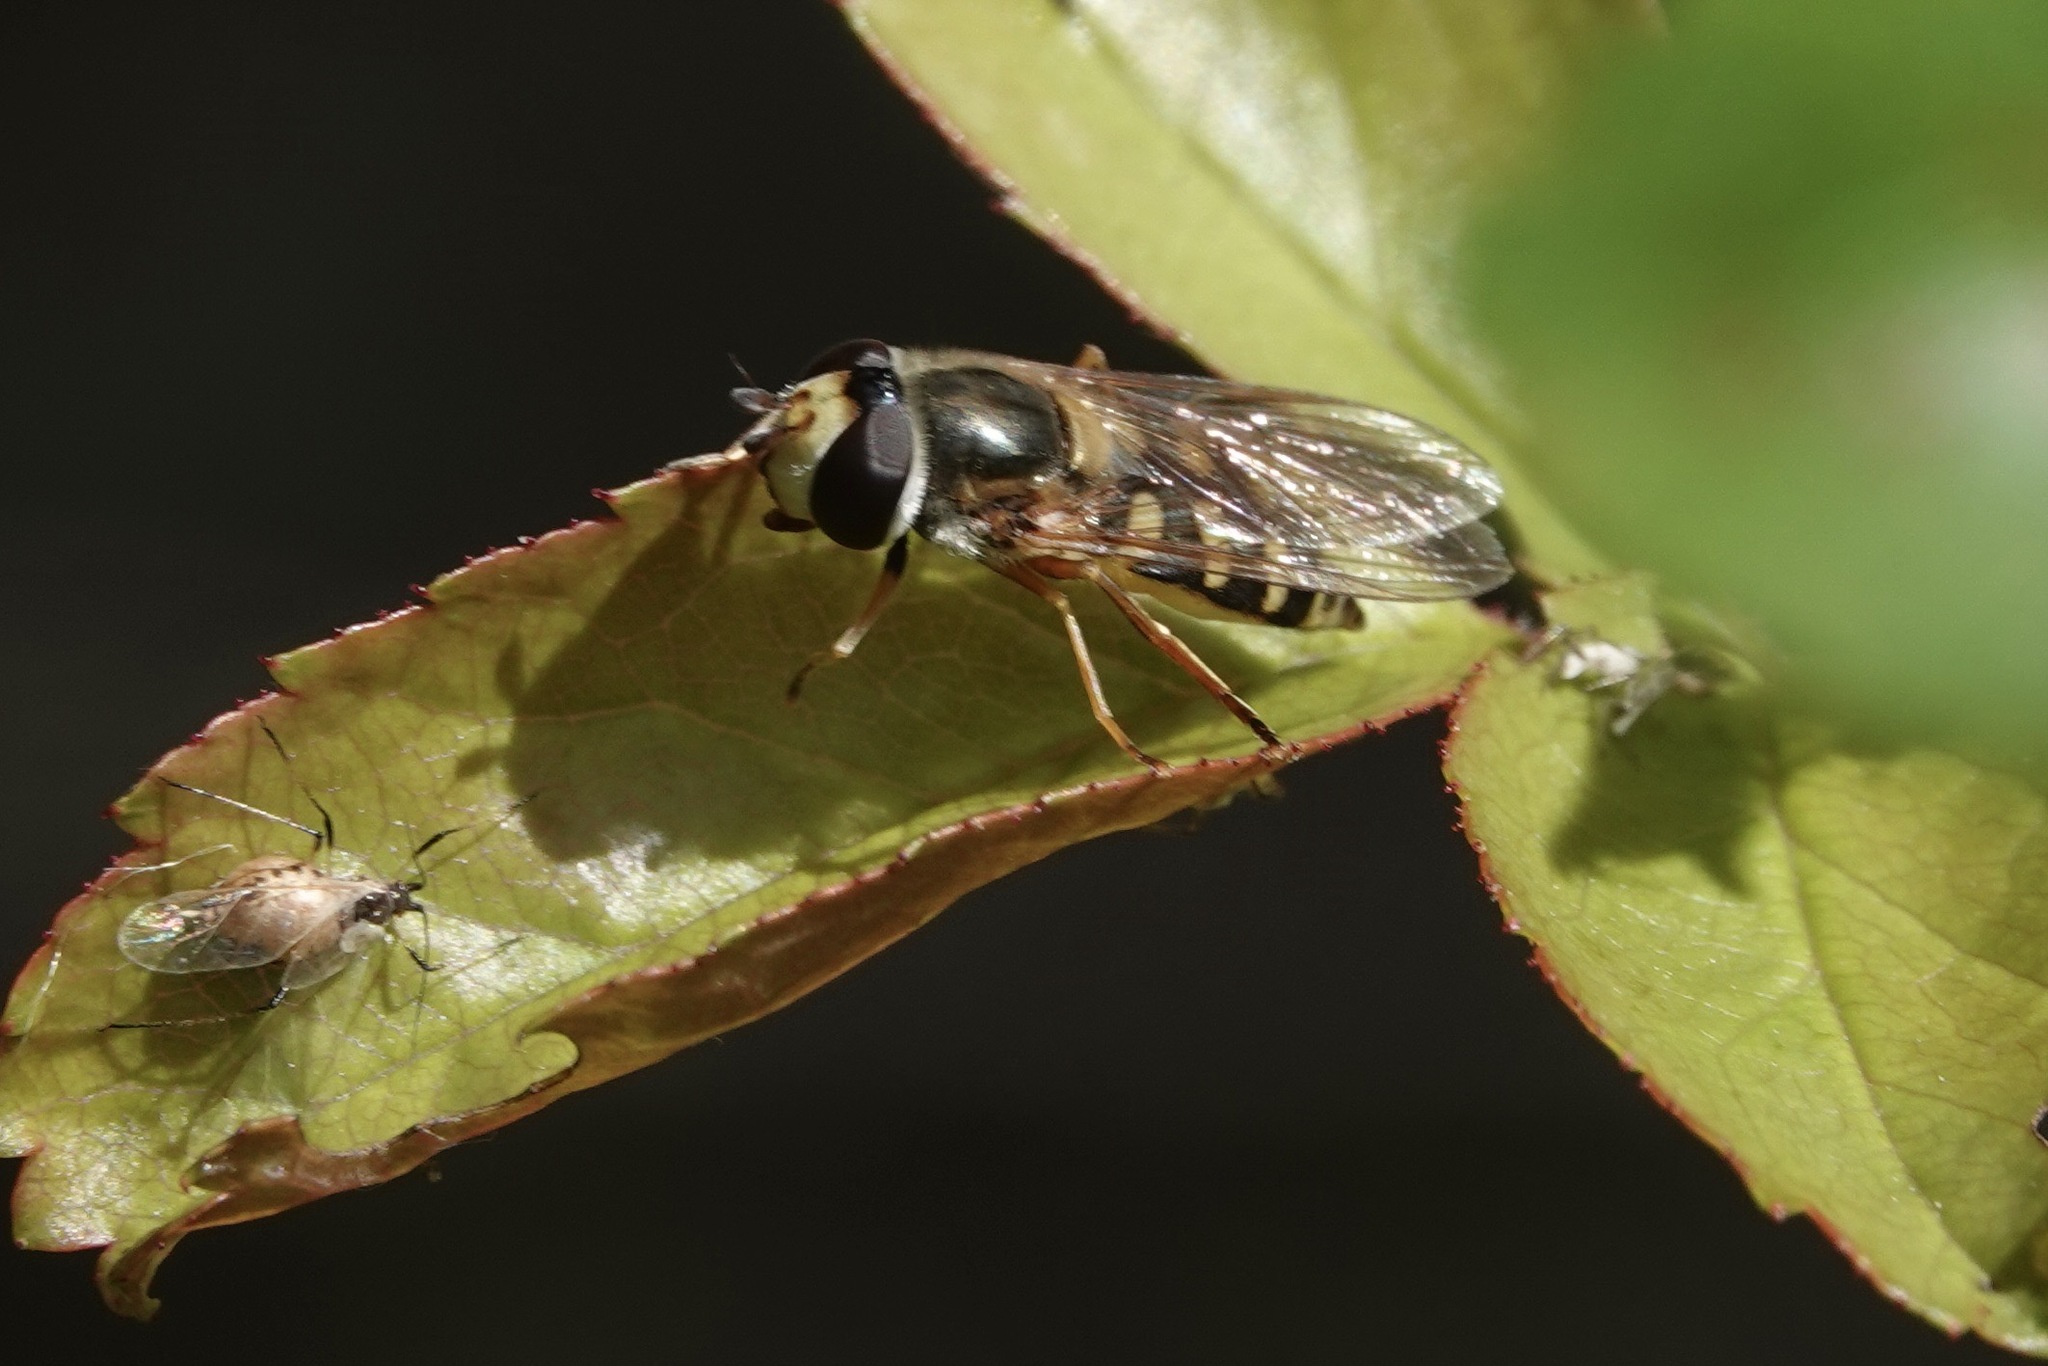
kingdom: Animalia
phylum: Arthropoda
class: Insecta
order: Diptera
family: Syrphidae
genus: Eupeodes
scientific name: Eupeodes
